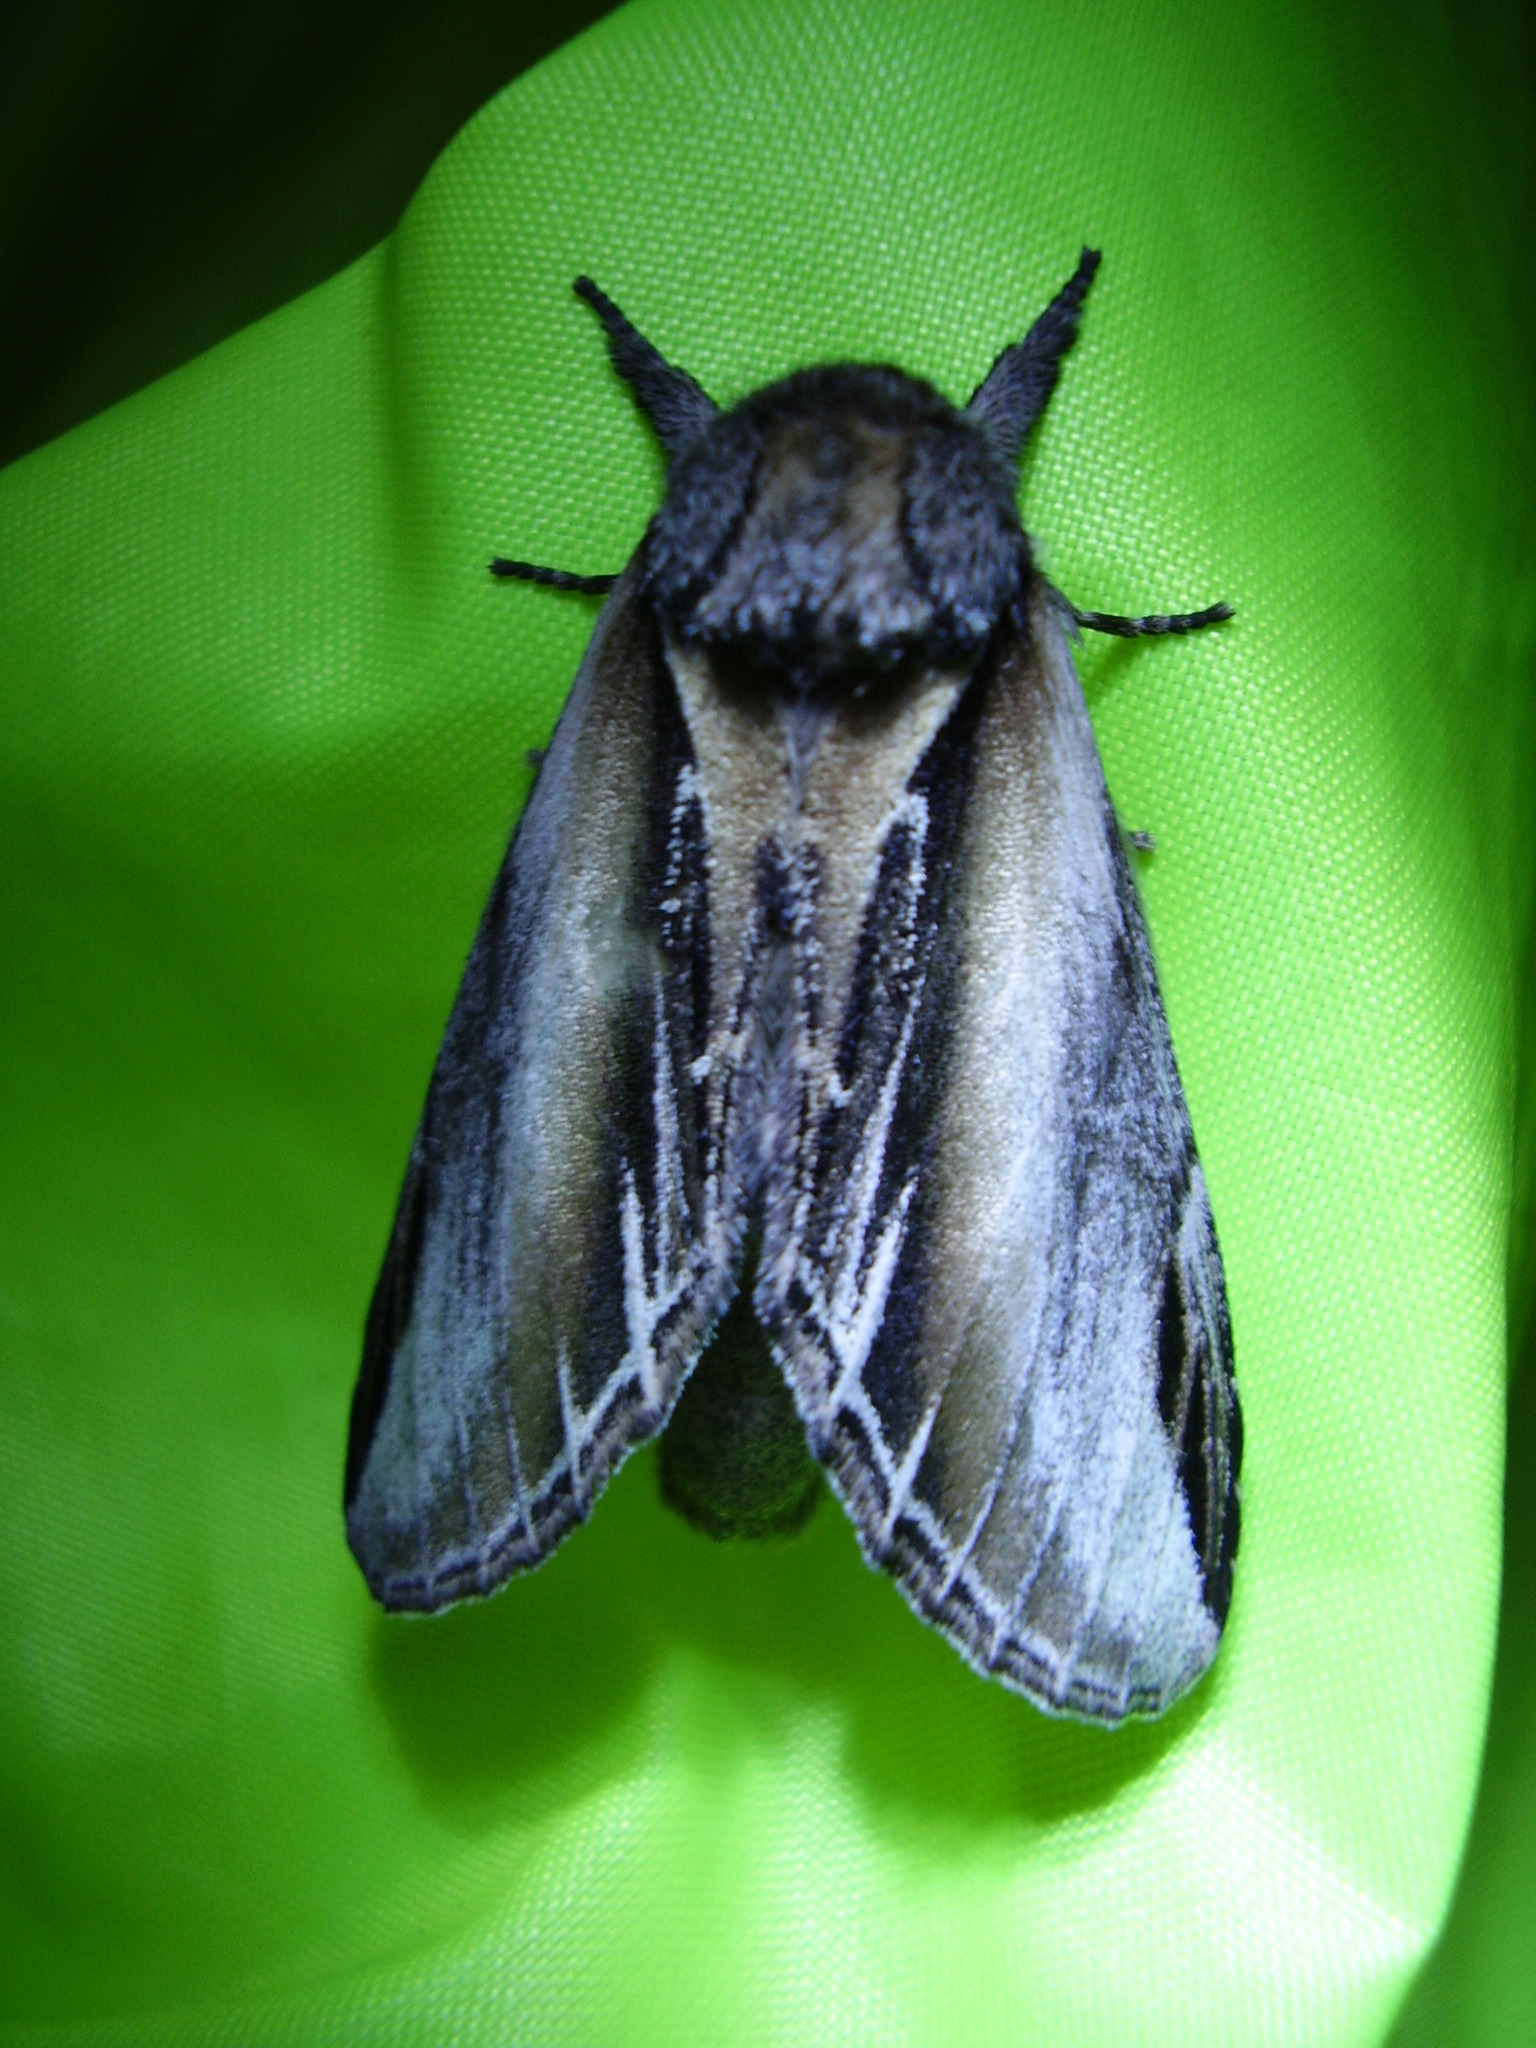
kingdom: Animalia
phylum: Arthropoda
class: Insecta
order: Lepidoptera
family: Notodontidae
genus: Pheosia
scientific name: Pheosia tremula
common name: Swallow prominent
